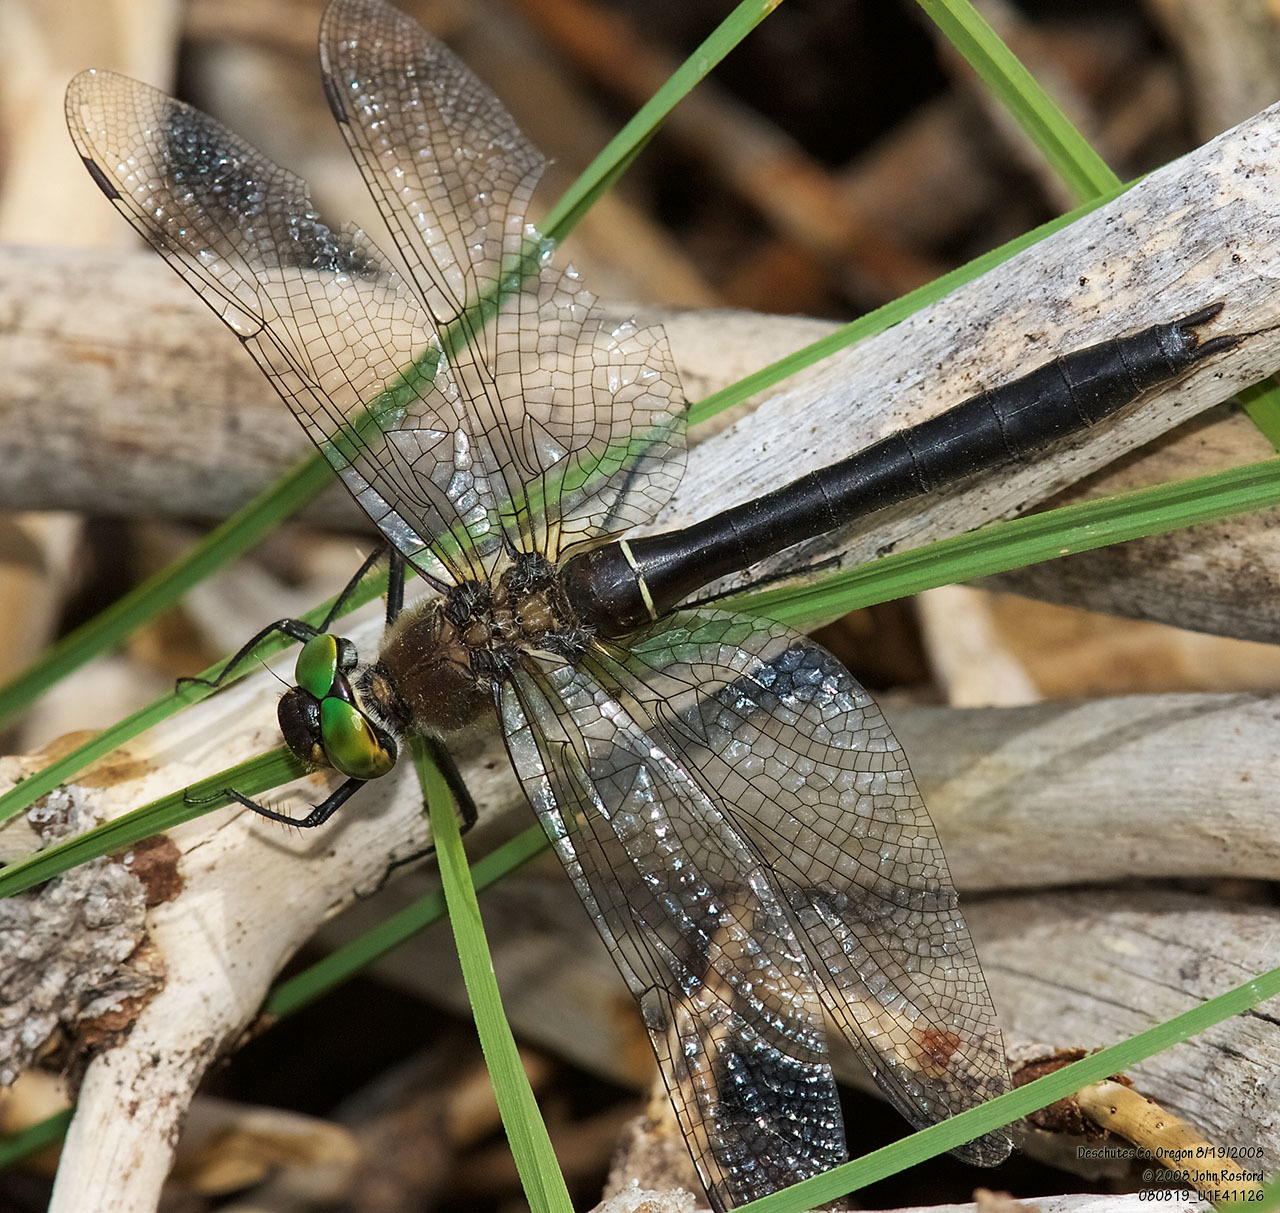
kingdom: Animalia
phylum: Arthropoda
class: Insecta
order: Odonata
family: Corduliidae
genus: Cordulia
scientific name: Cordulia shurtleffii
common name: American emerald
